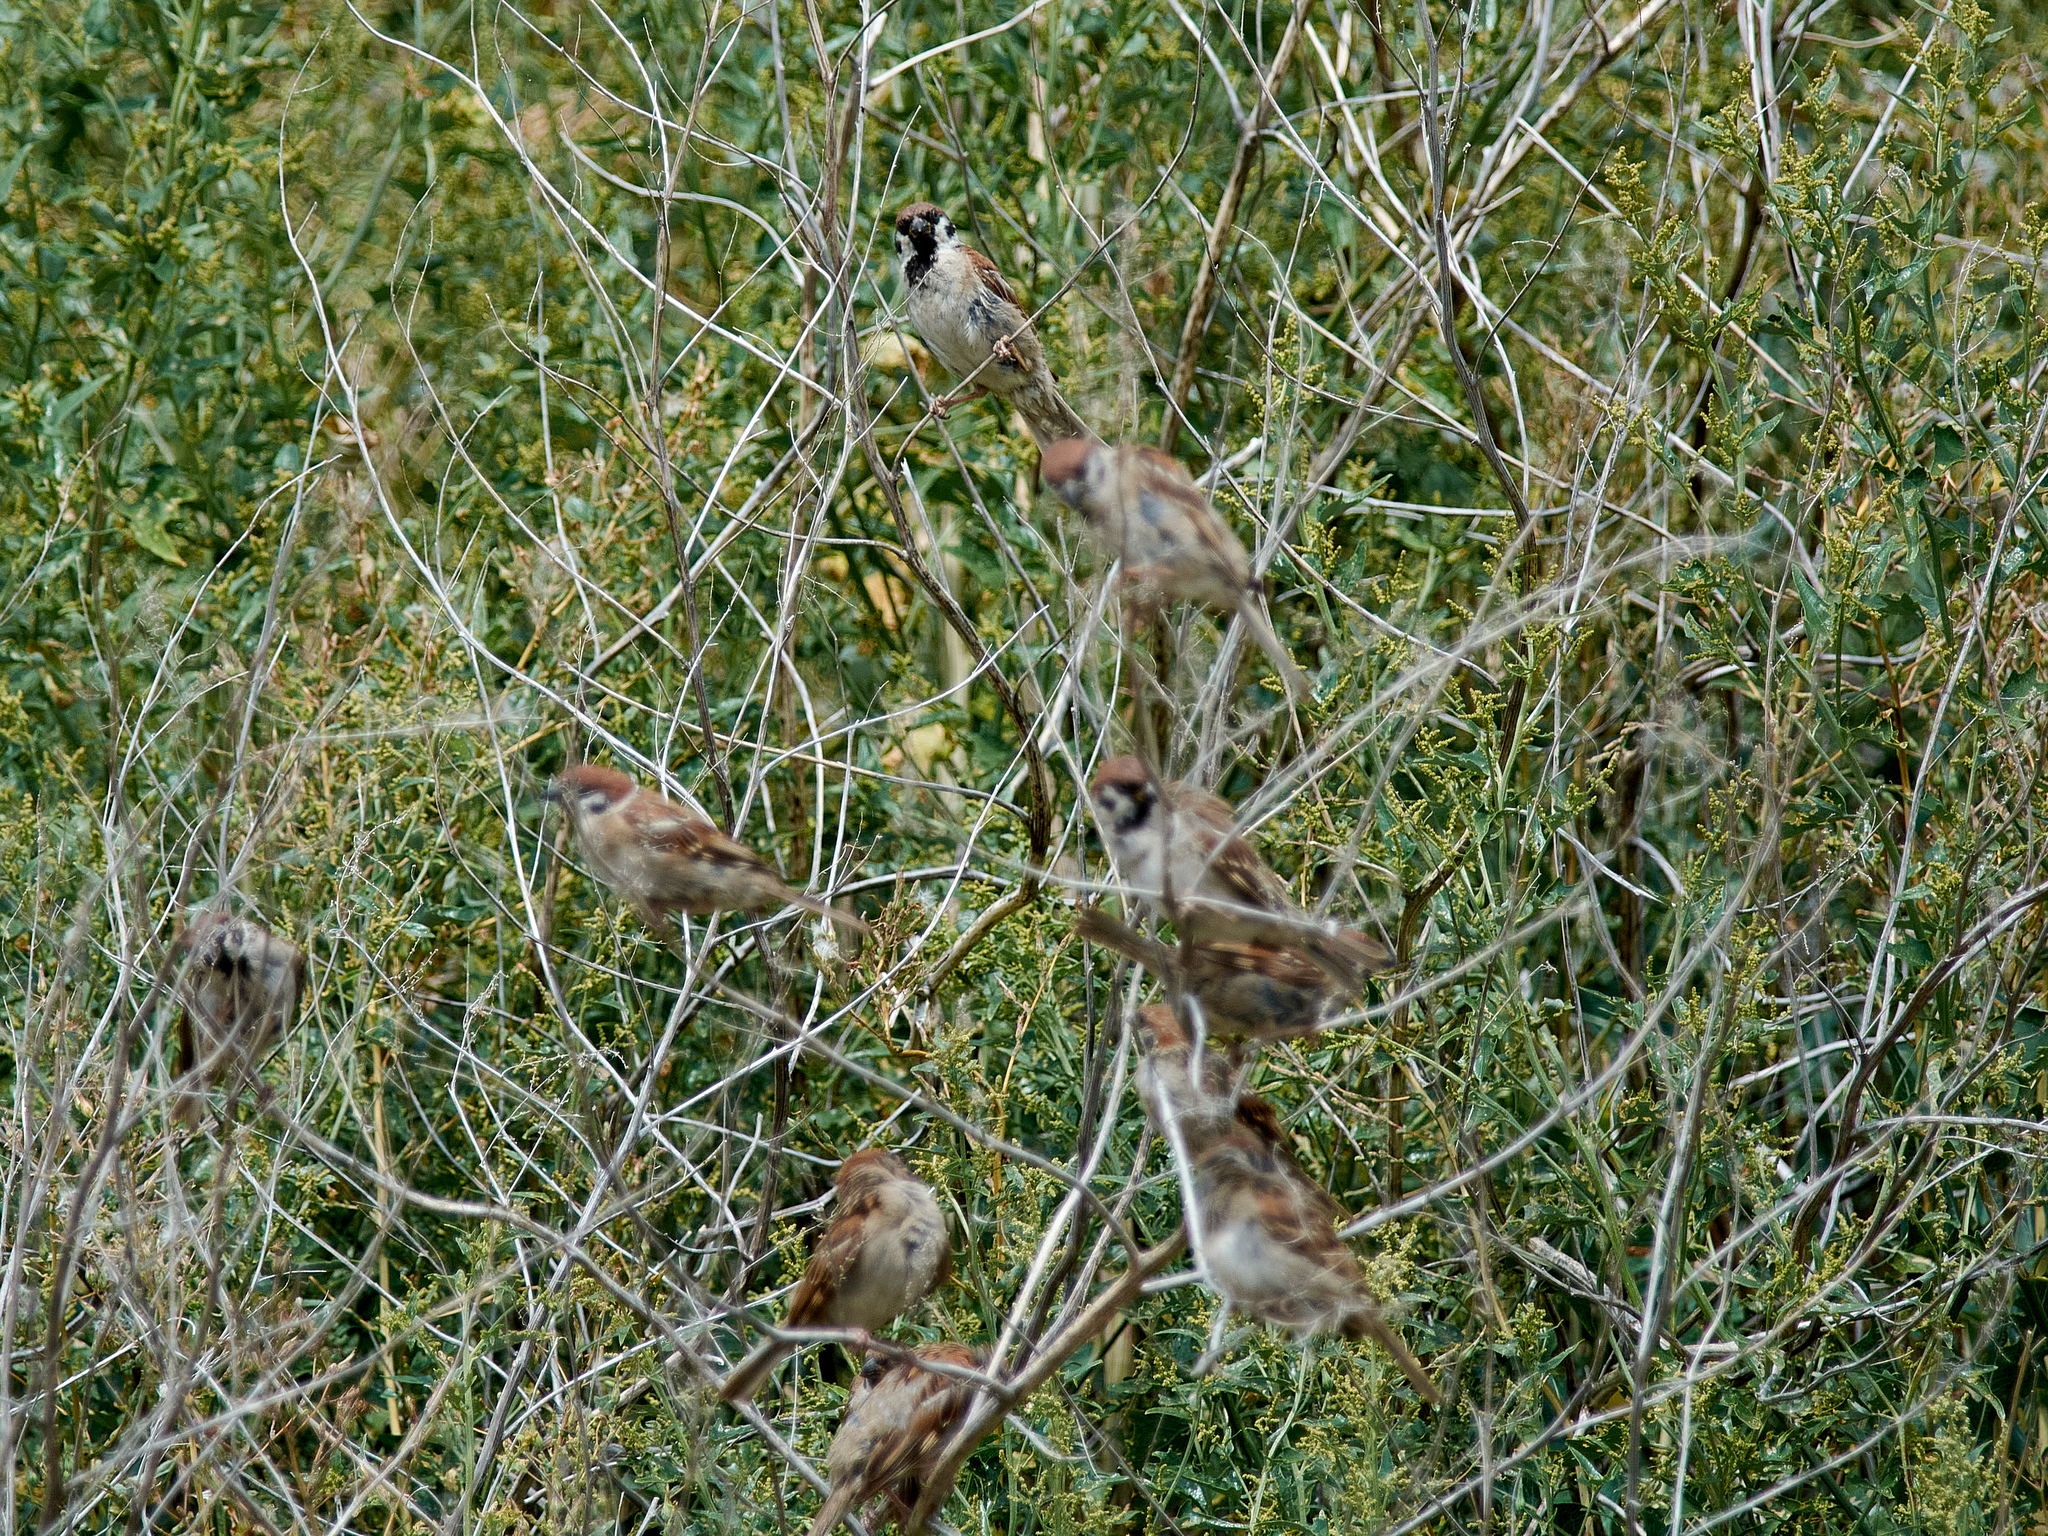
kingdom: Animalia
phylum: Chordata
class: Aves
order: Passeriformes
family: Passeridae
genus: Passer
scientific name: Passer montanus
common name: Eurasian tree sparrow
